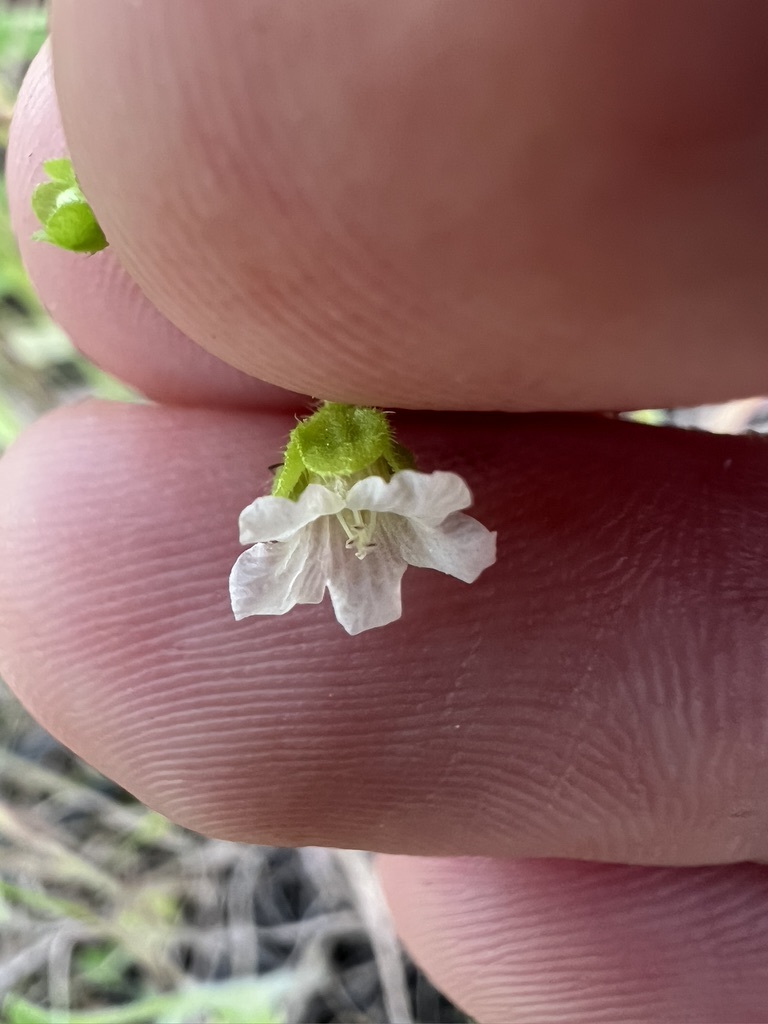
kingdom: Plantae
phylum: Tracheophyta
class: Magnoliopsida
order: Boraginales
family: Hydrophyllaceae
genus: Eucrypta
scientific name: Eucrypta chrysanthemifolia
